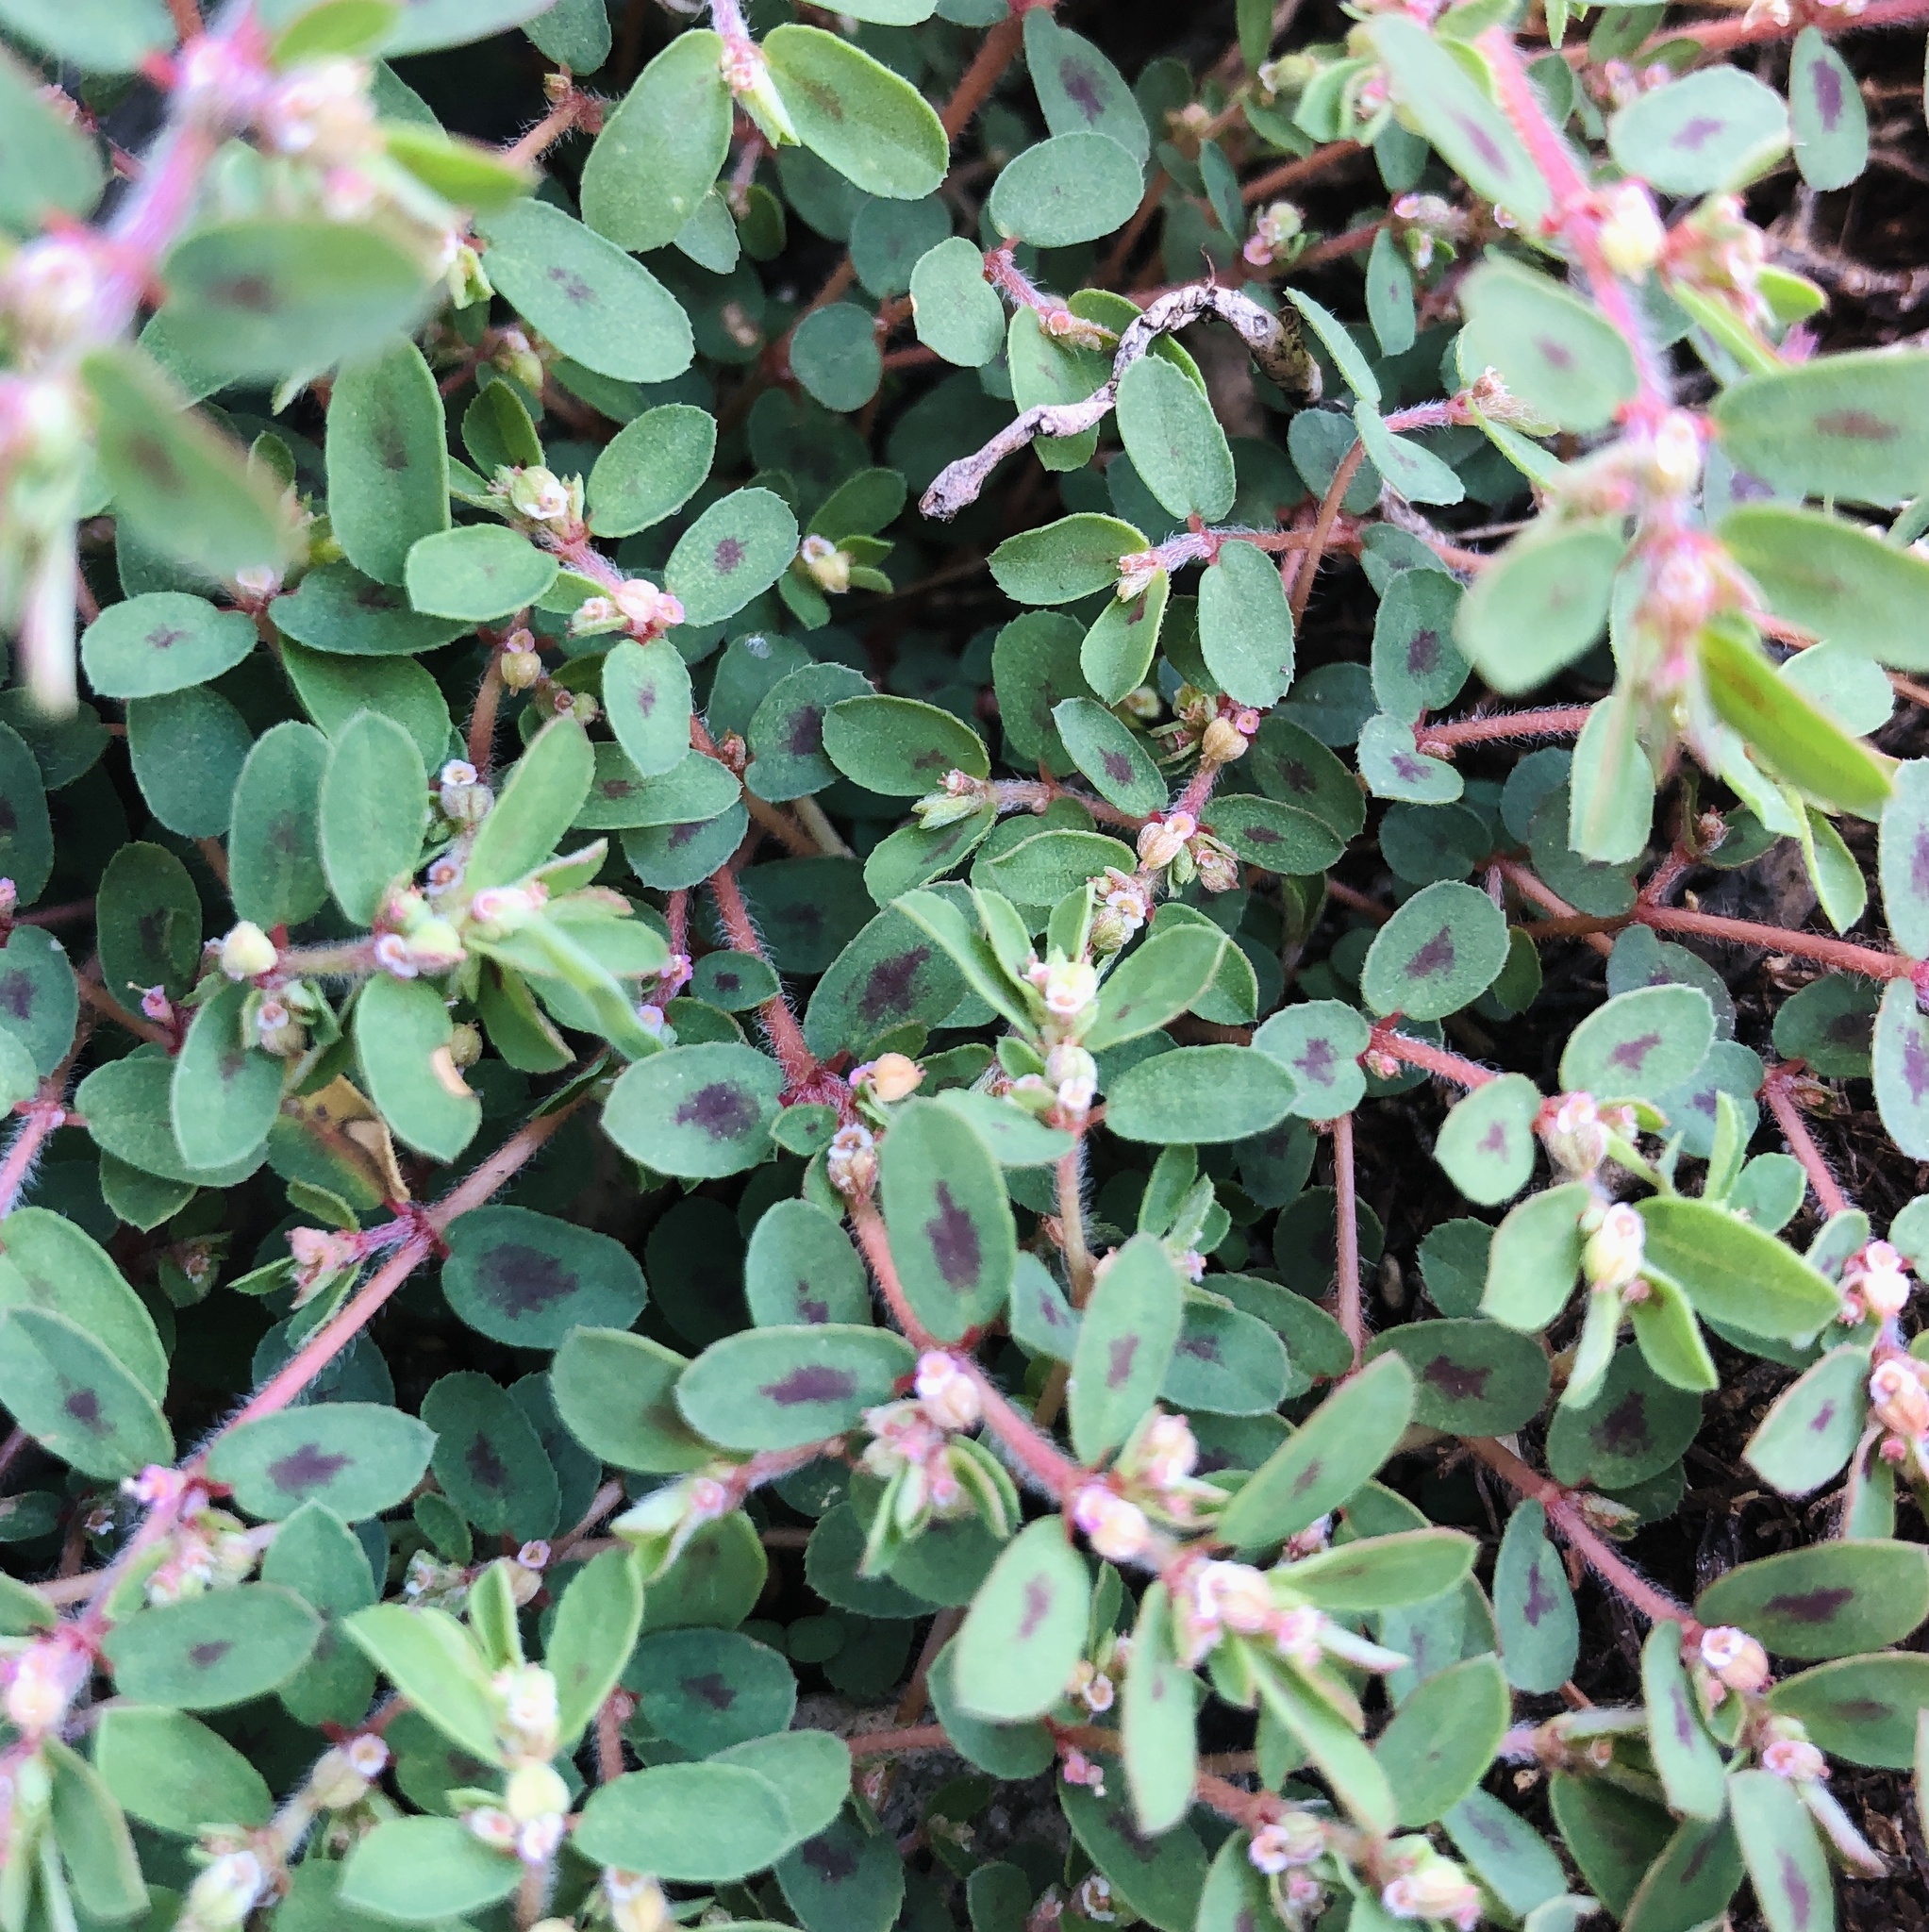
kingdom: Plantae
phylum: Tracheophyta
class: Magnoliopsida
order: Malpighiales
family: Euphorbiaceae
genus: Euphorbia
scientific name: Euphorbia maculata
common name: Spotted spurge
